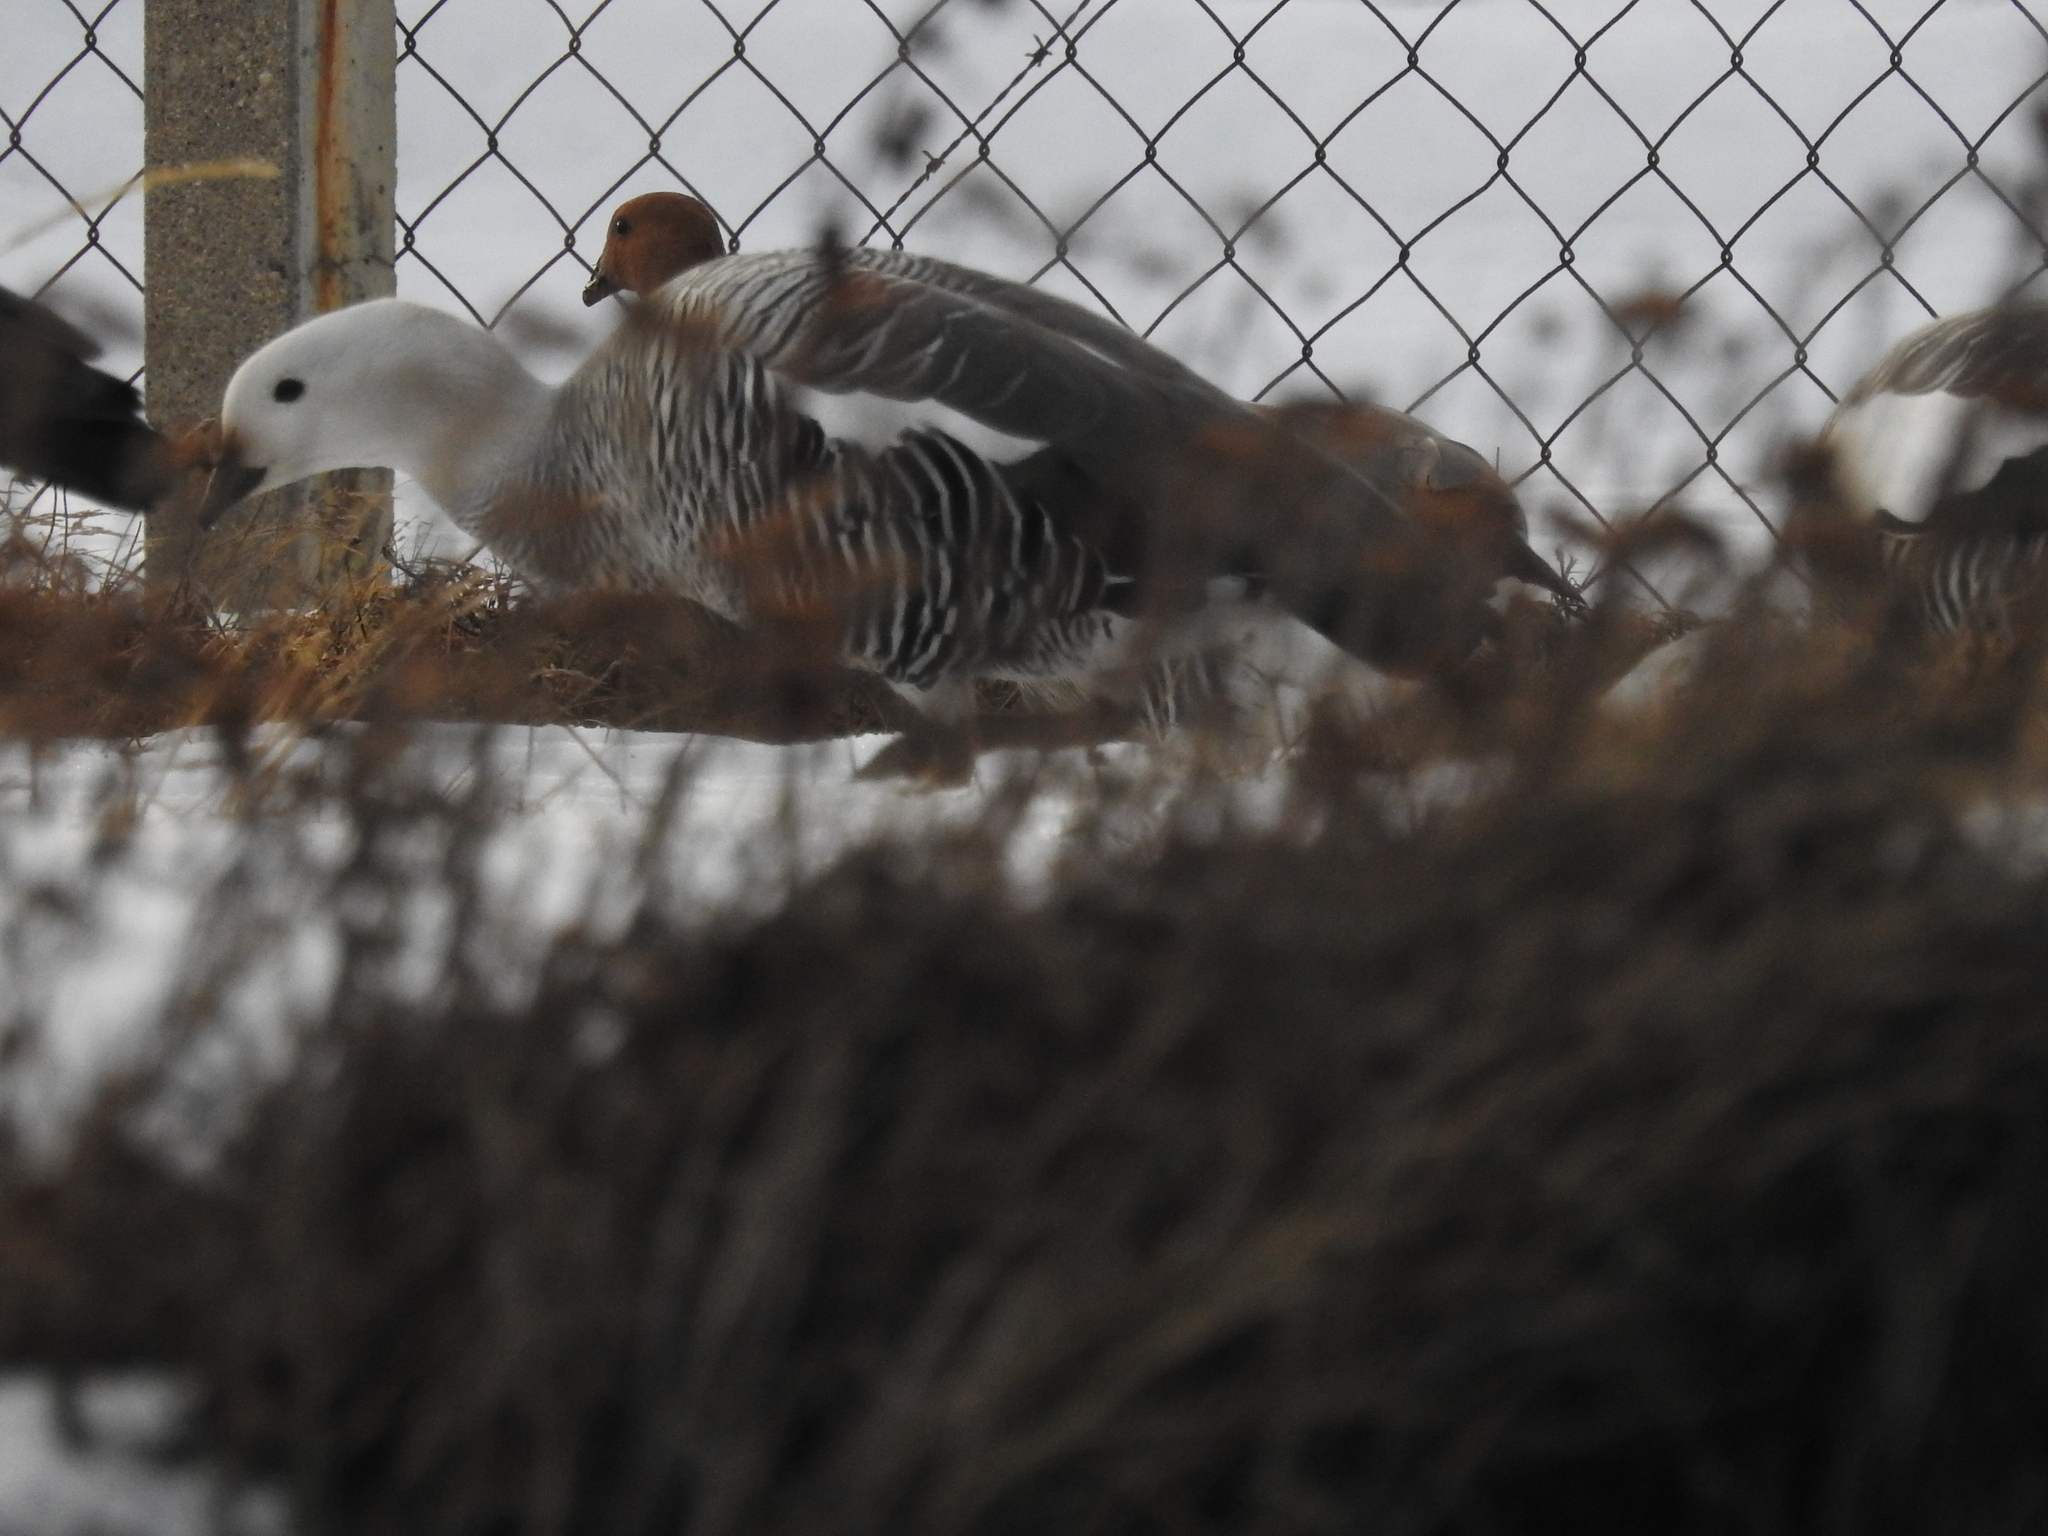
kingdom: Animalia
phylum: Chordata
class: Aves
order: Anseriformes
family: Anatidae
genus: Chloephaga
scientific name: Chloephaga picta
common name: Upland goose
